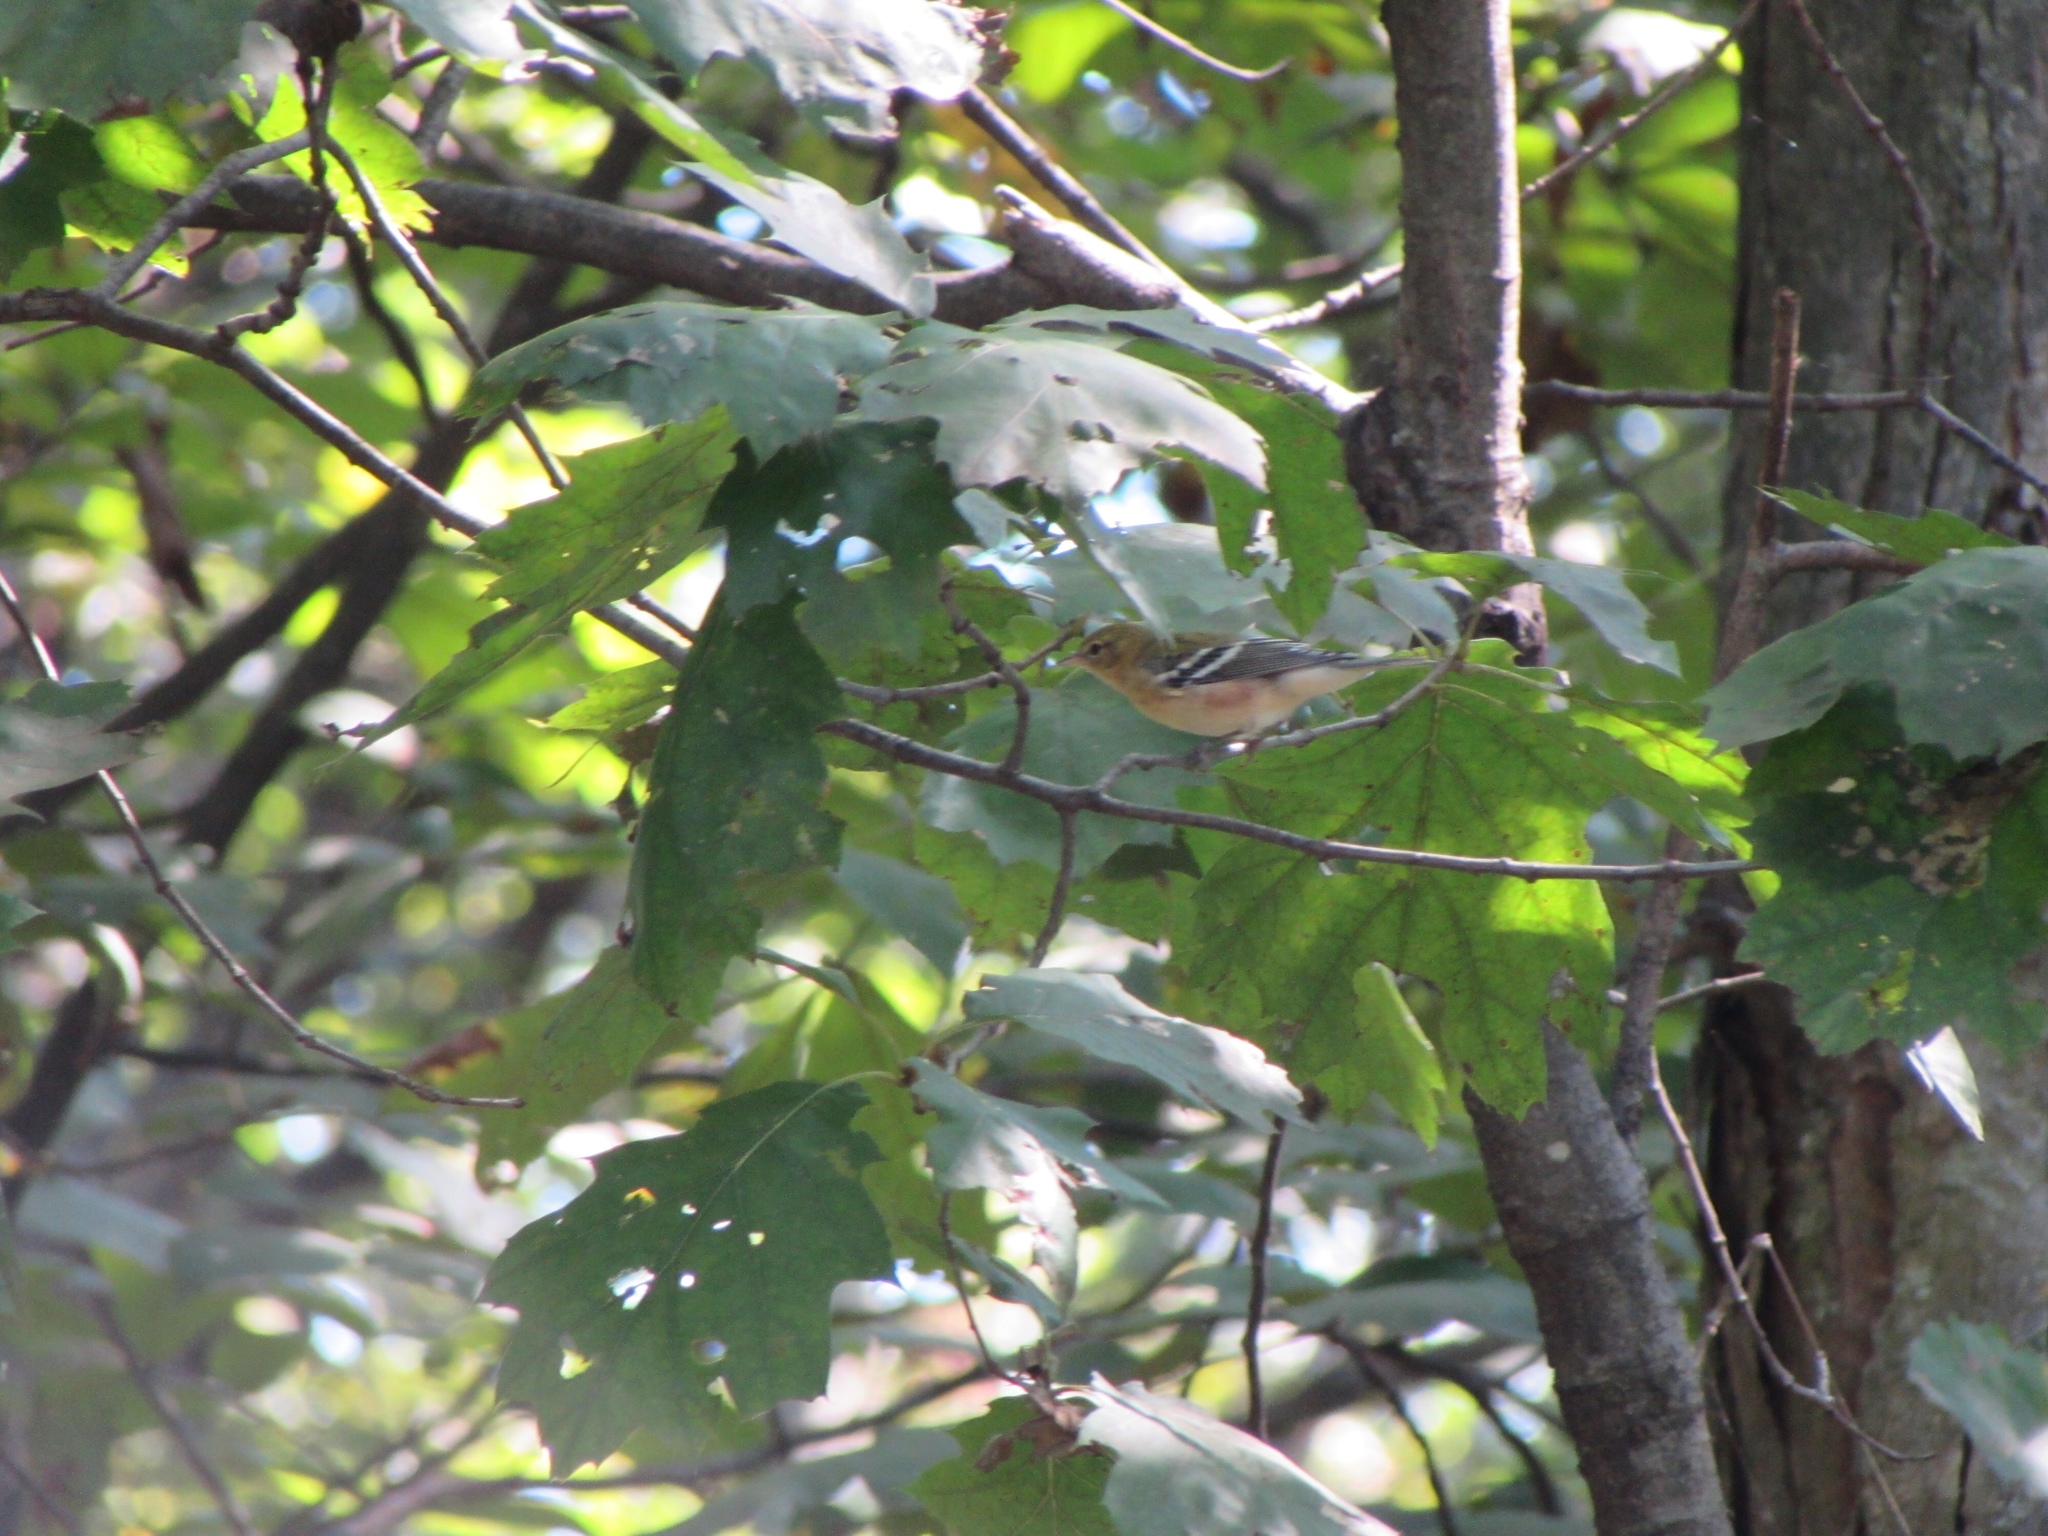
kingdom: Animalia
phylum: Chordata
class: Aves
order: Passeriformes
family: Parulidae
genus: Setophaga
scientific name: Setophaga castanea
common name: Bay-breasted warbler
